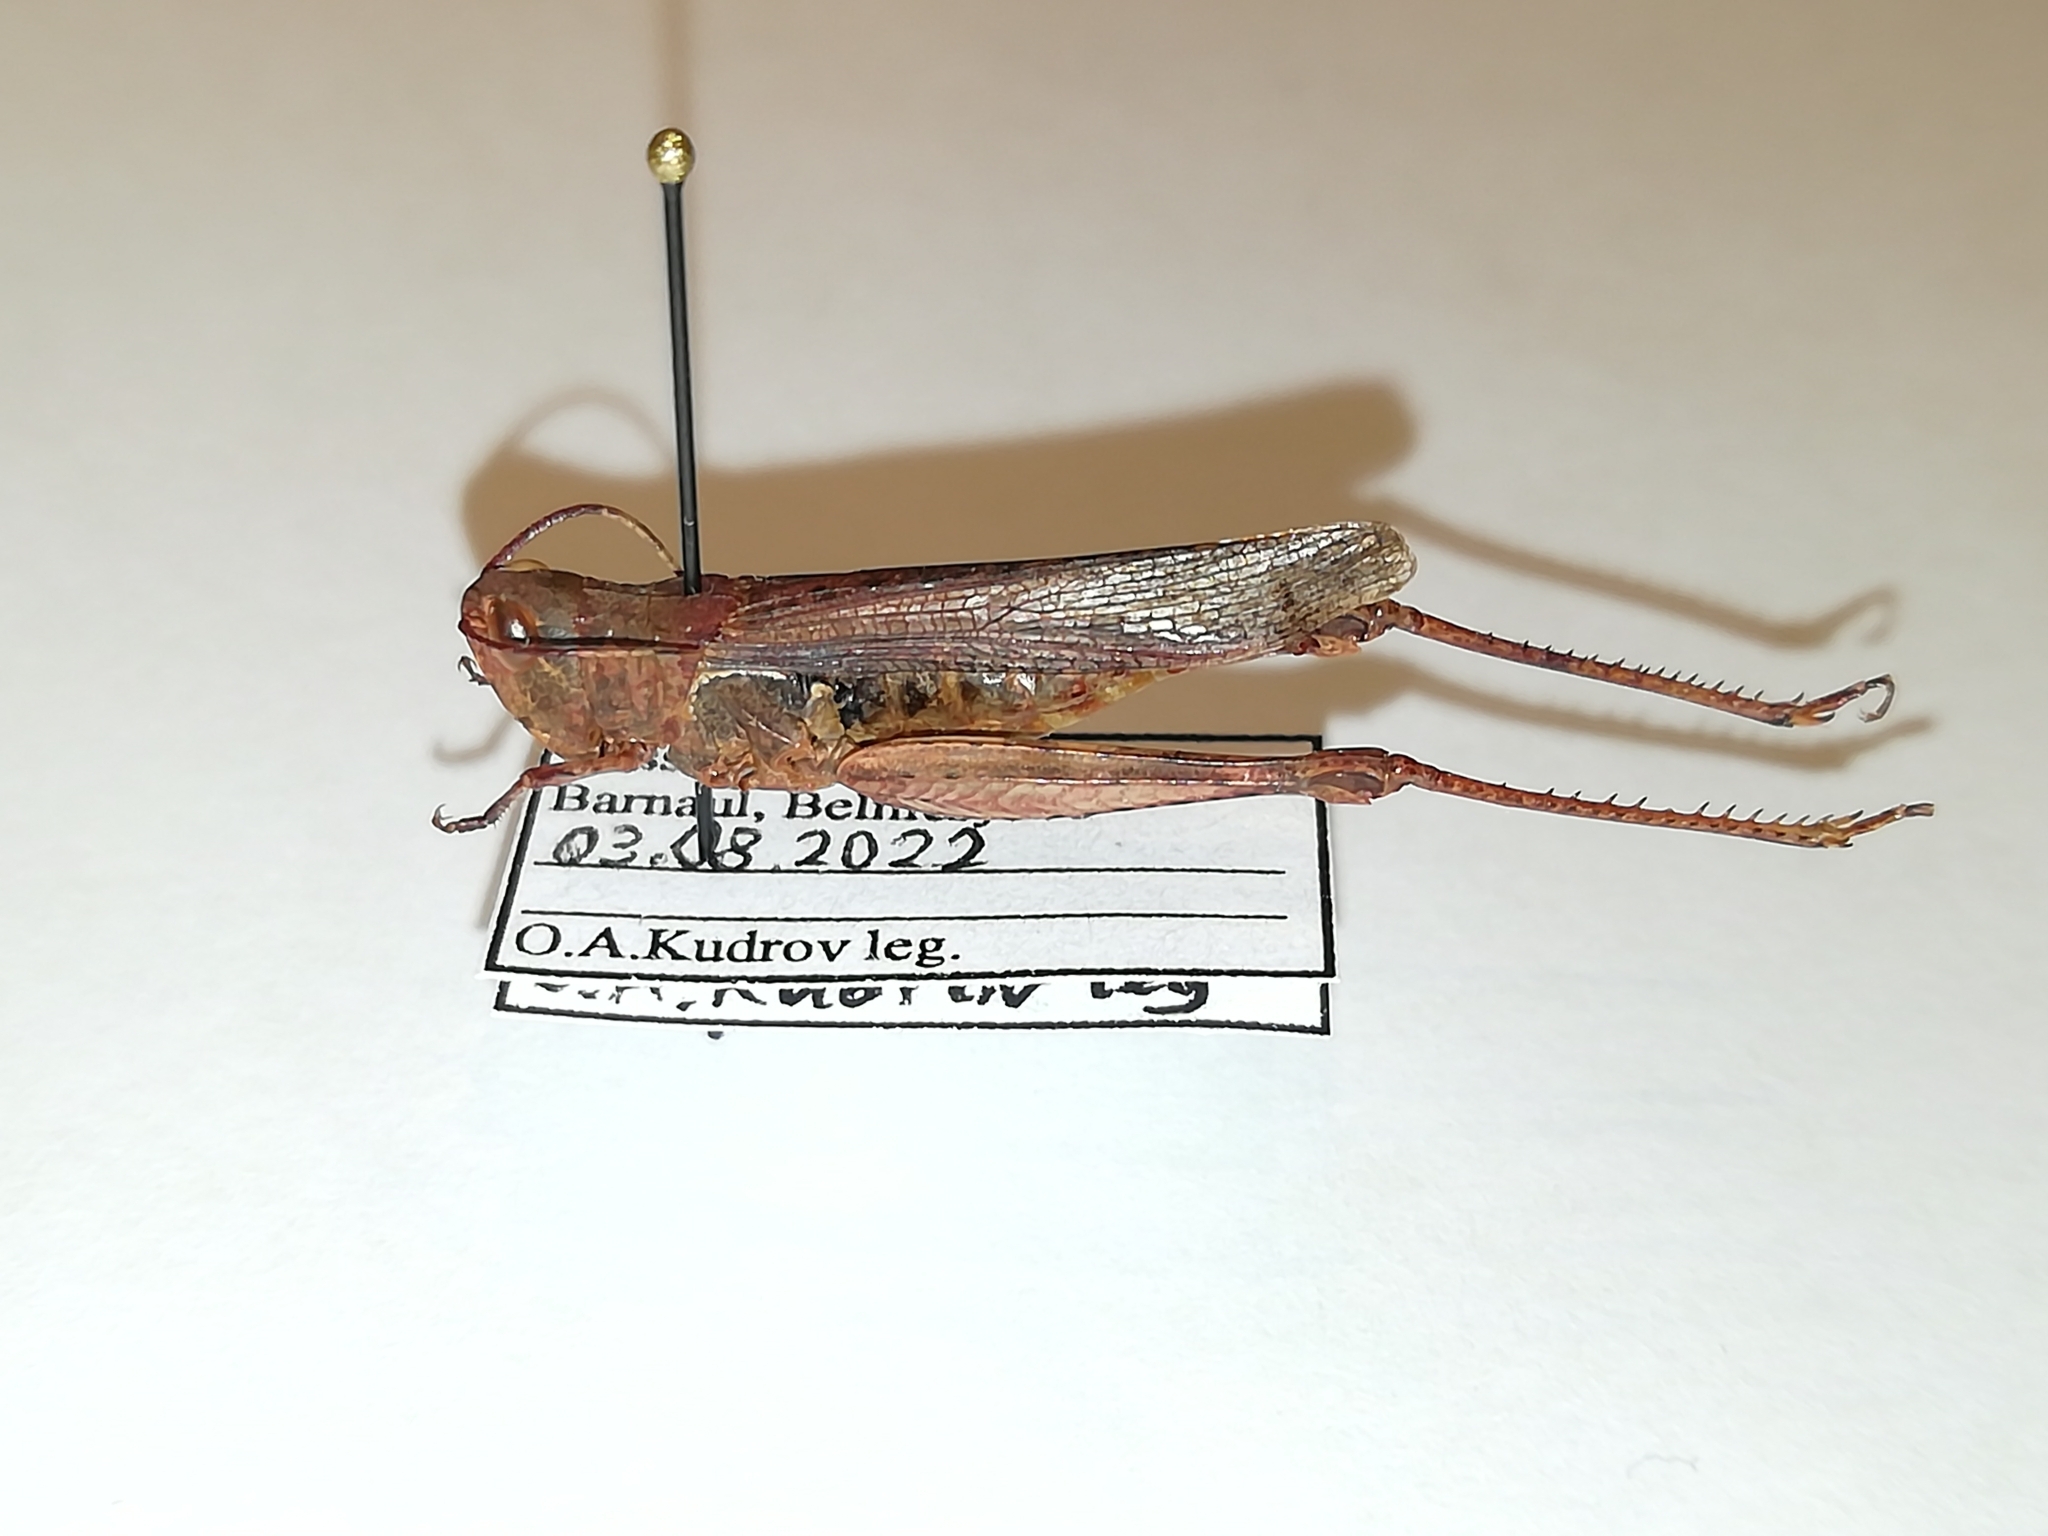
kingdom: Animalia
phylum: Arthropoda
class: Insecta
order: Orthoptera
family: Acrididae
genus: Chorthippus
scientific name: Chorthippus miramae
